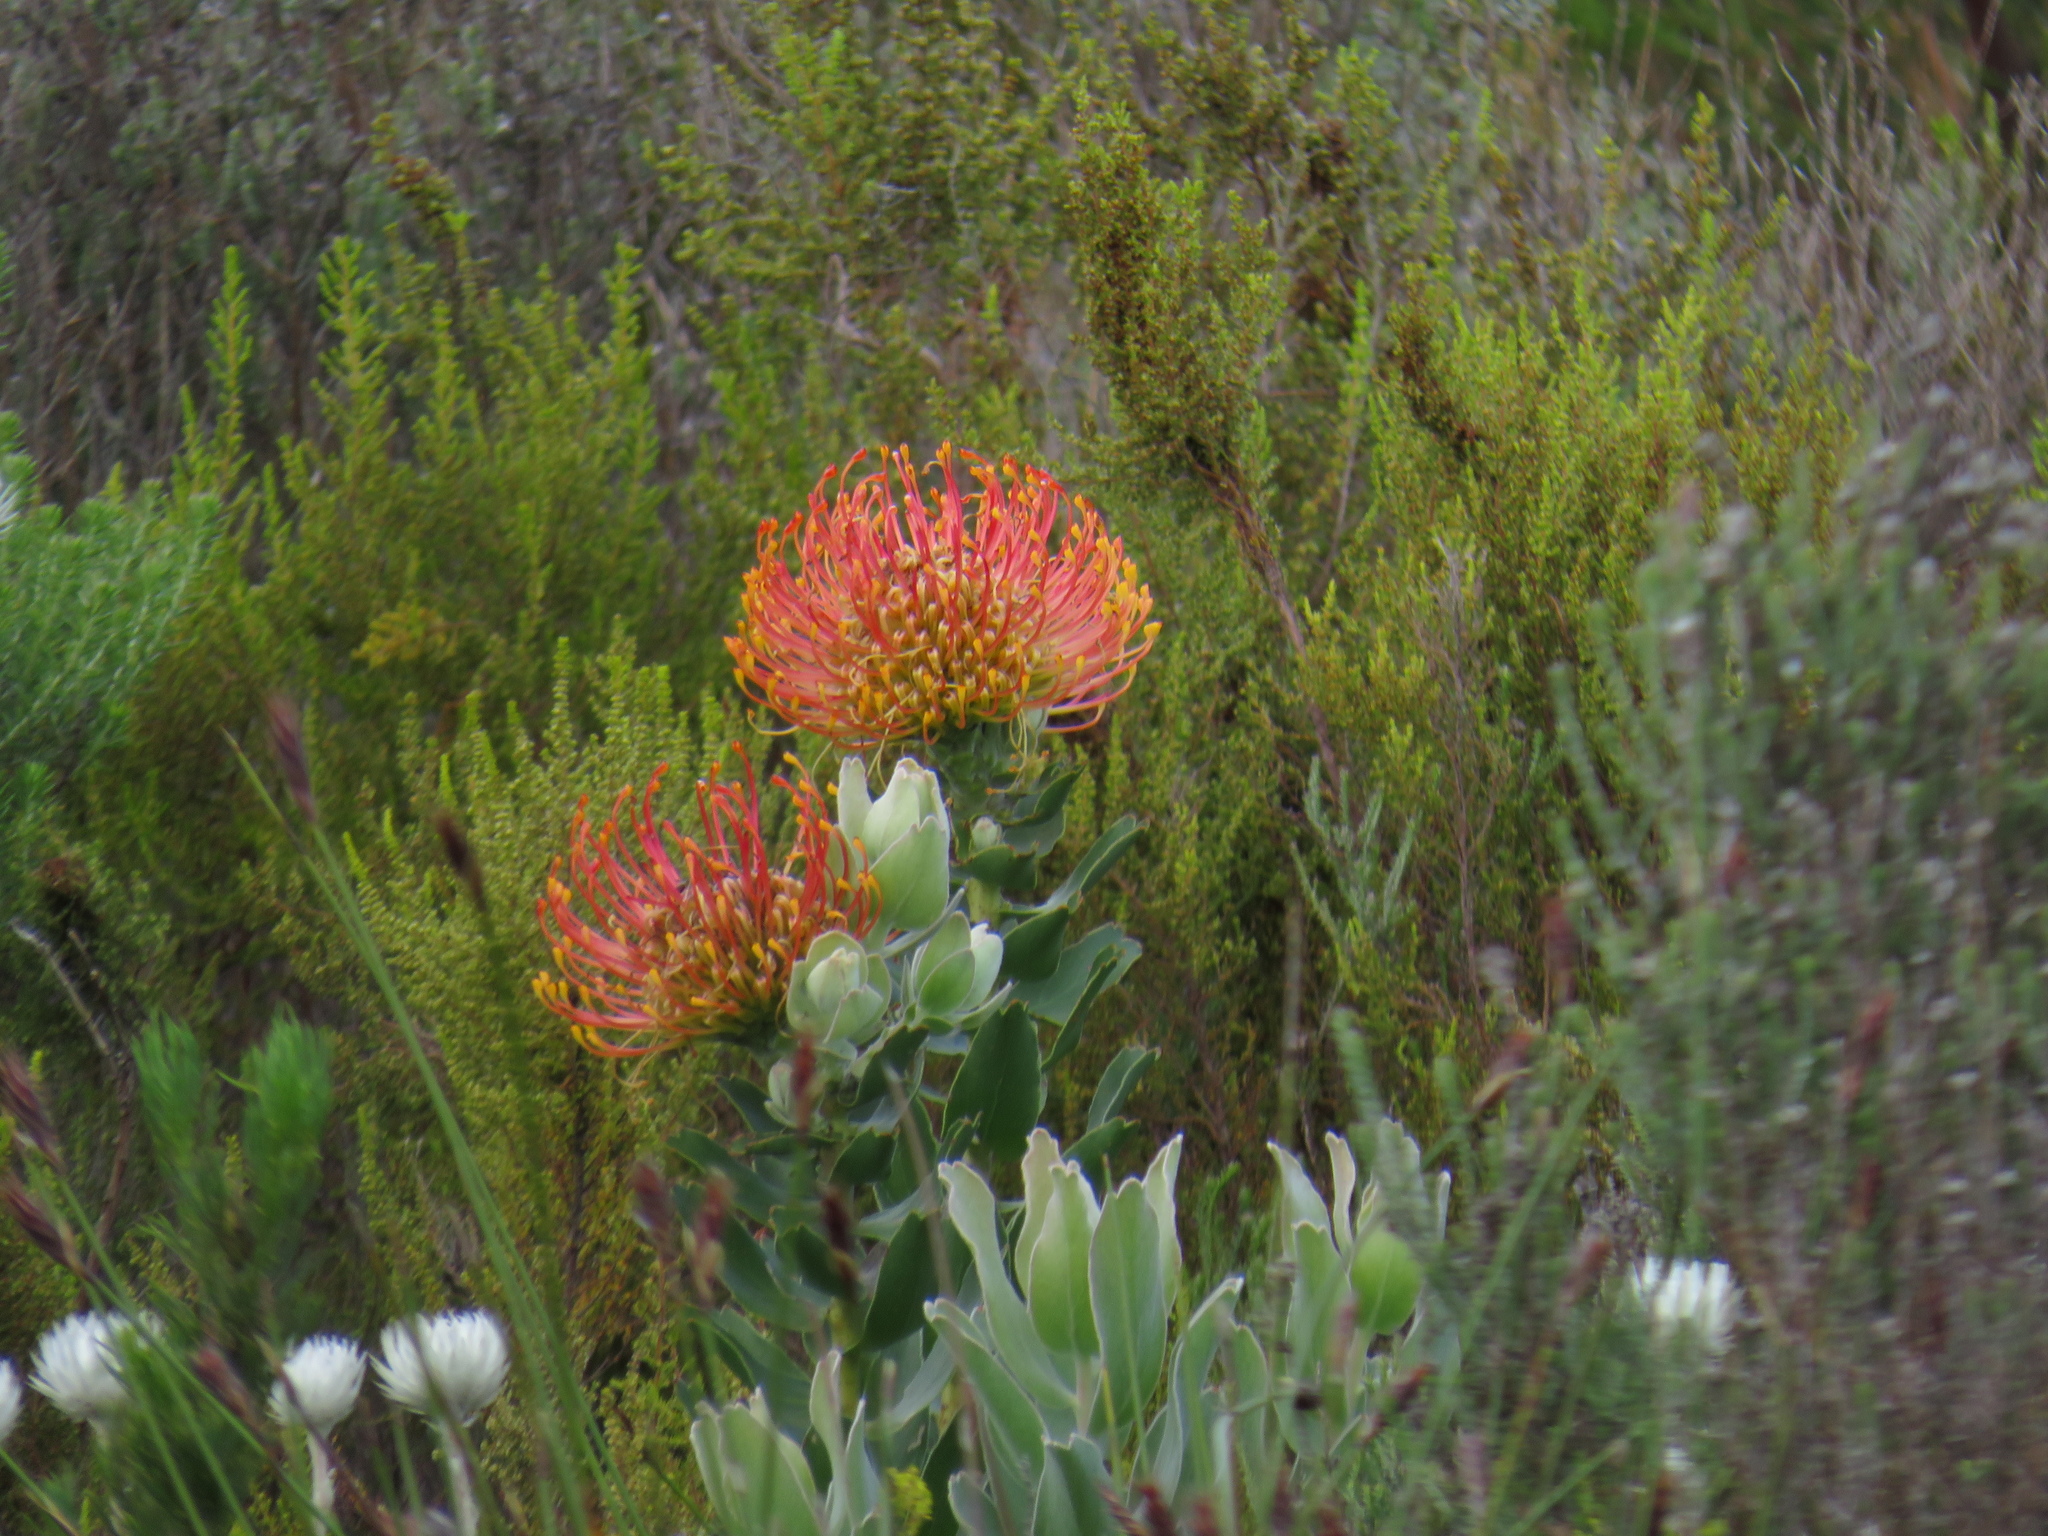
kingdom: Plantae
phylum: Tracheophyta
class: Magnoliopsida
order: Proteales
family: Proteaceae
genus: Leucospermum
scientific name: Leucospermum cordifolium
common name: Red pincushion-protea
